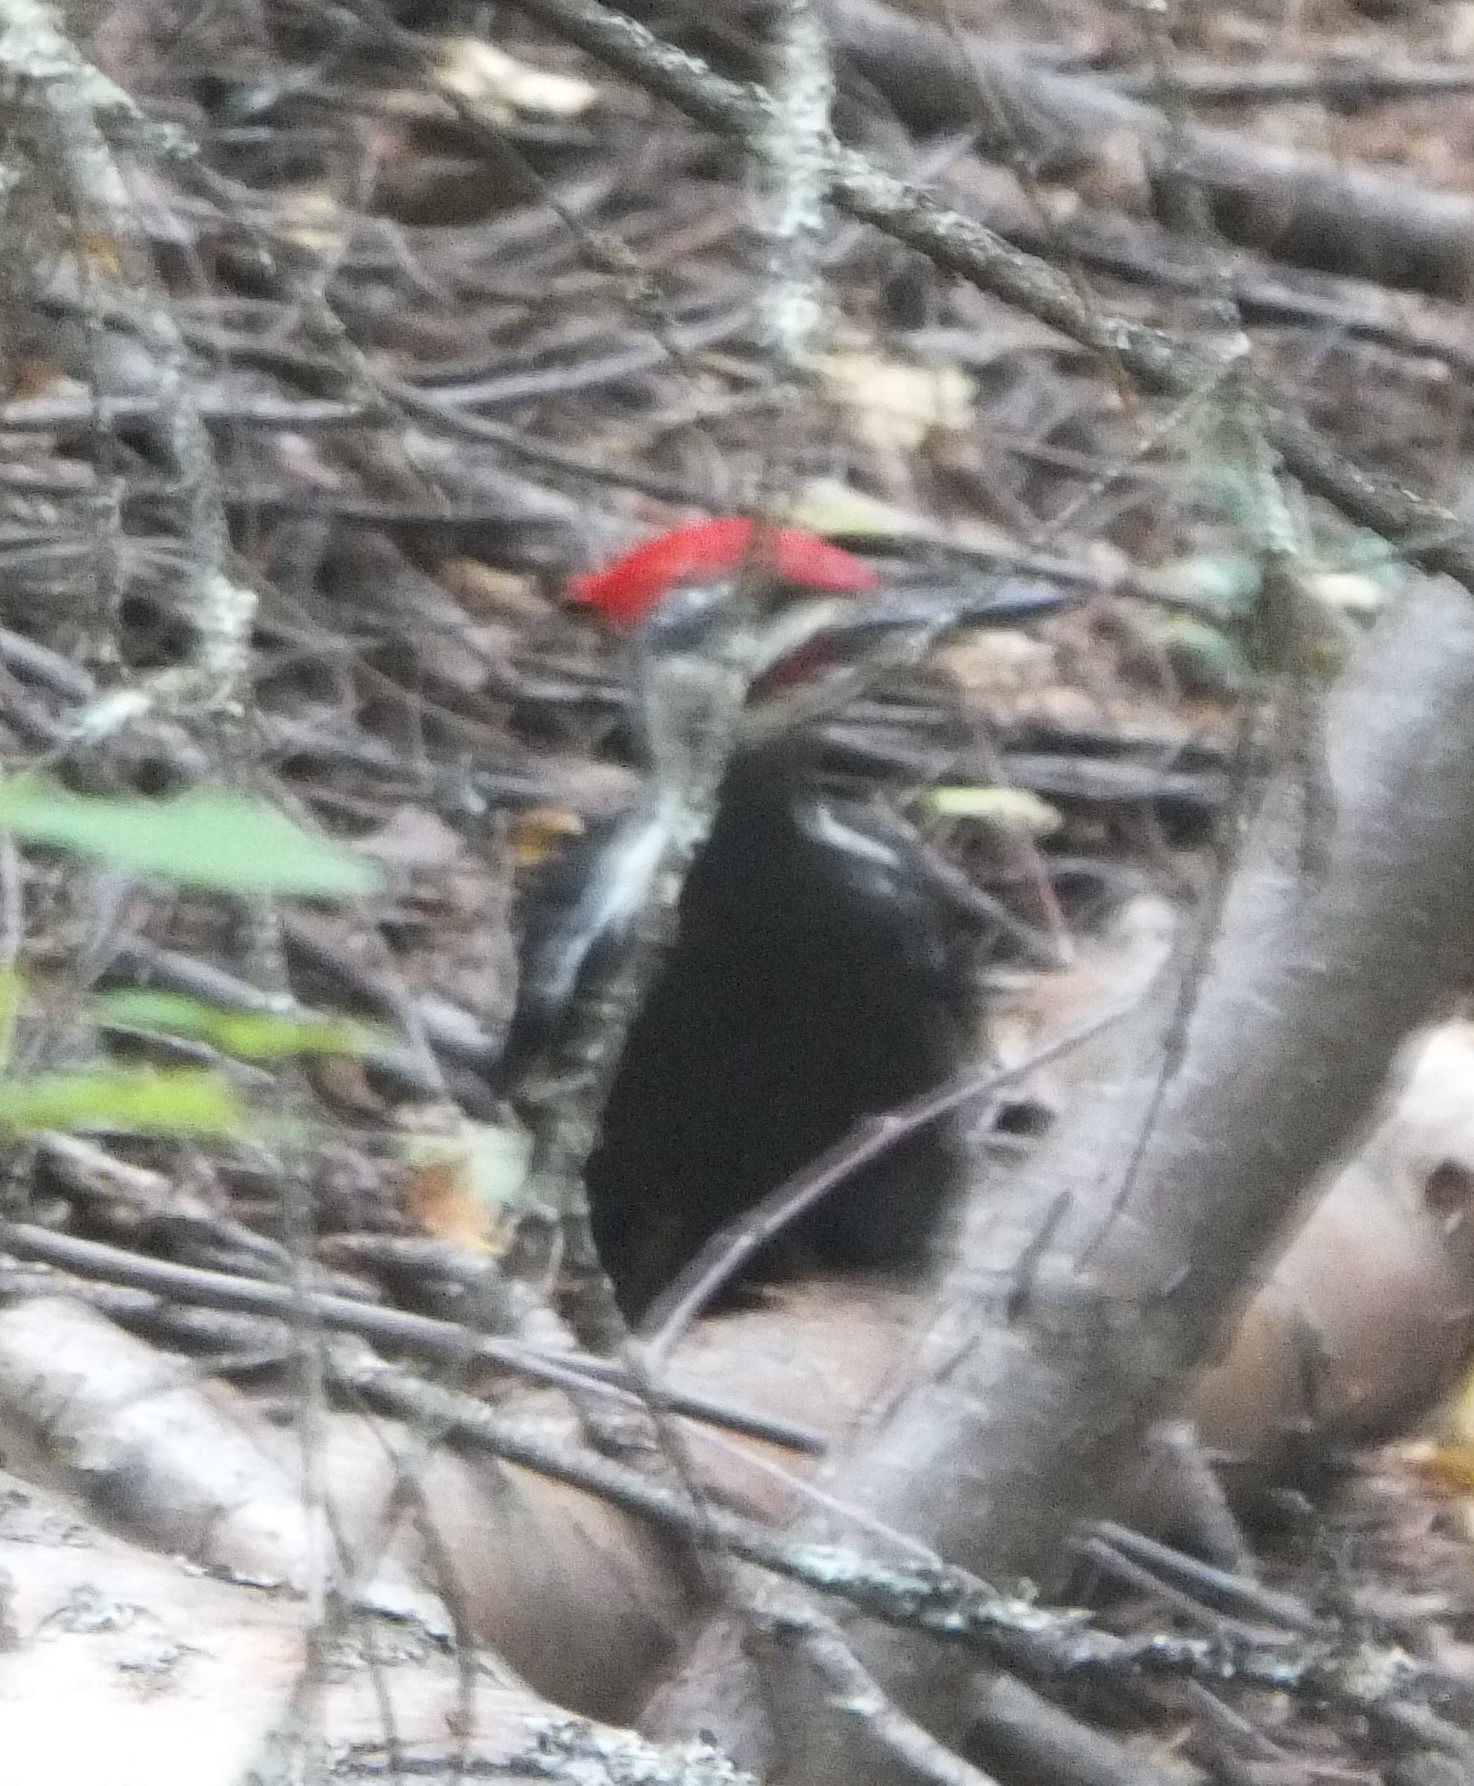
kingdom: Animalia
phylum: Chordata
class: Aves
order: Piciformes
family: Picidae
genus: Dryocopus
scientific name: Dryocopus pileatus
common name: Pileated woodpecker
